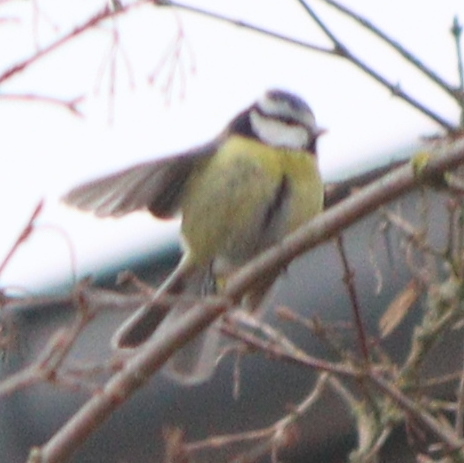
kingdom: Animalia
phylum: Chordata
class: Aves
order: Passeriformes
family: Paridae
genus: Cyanistes
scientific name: Cyanistes caeruleus
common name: Eurasian blue tit
